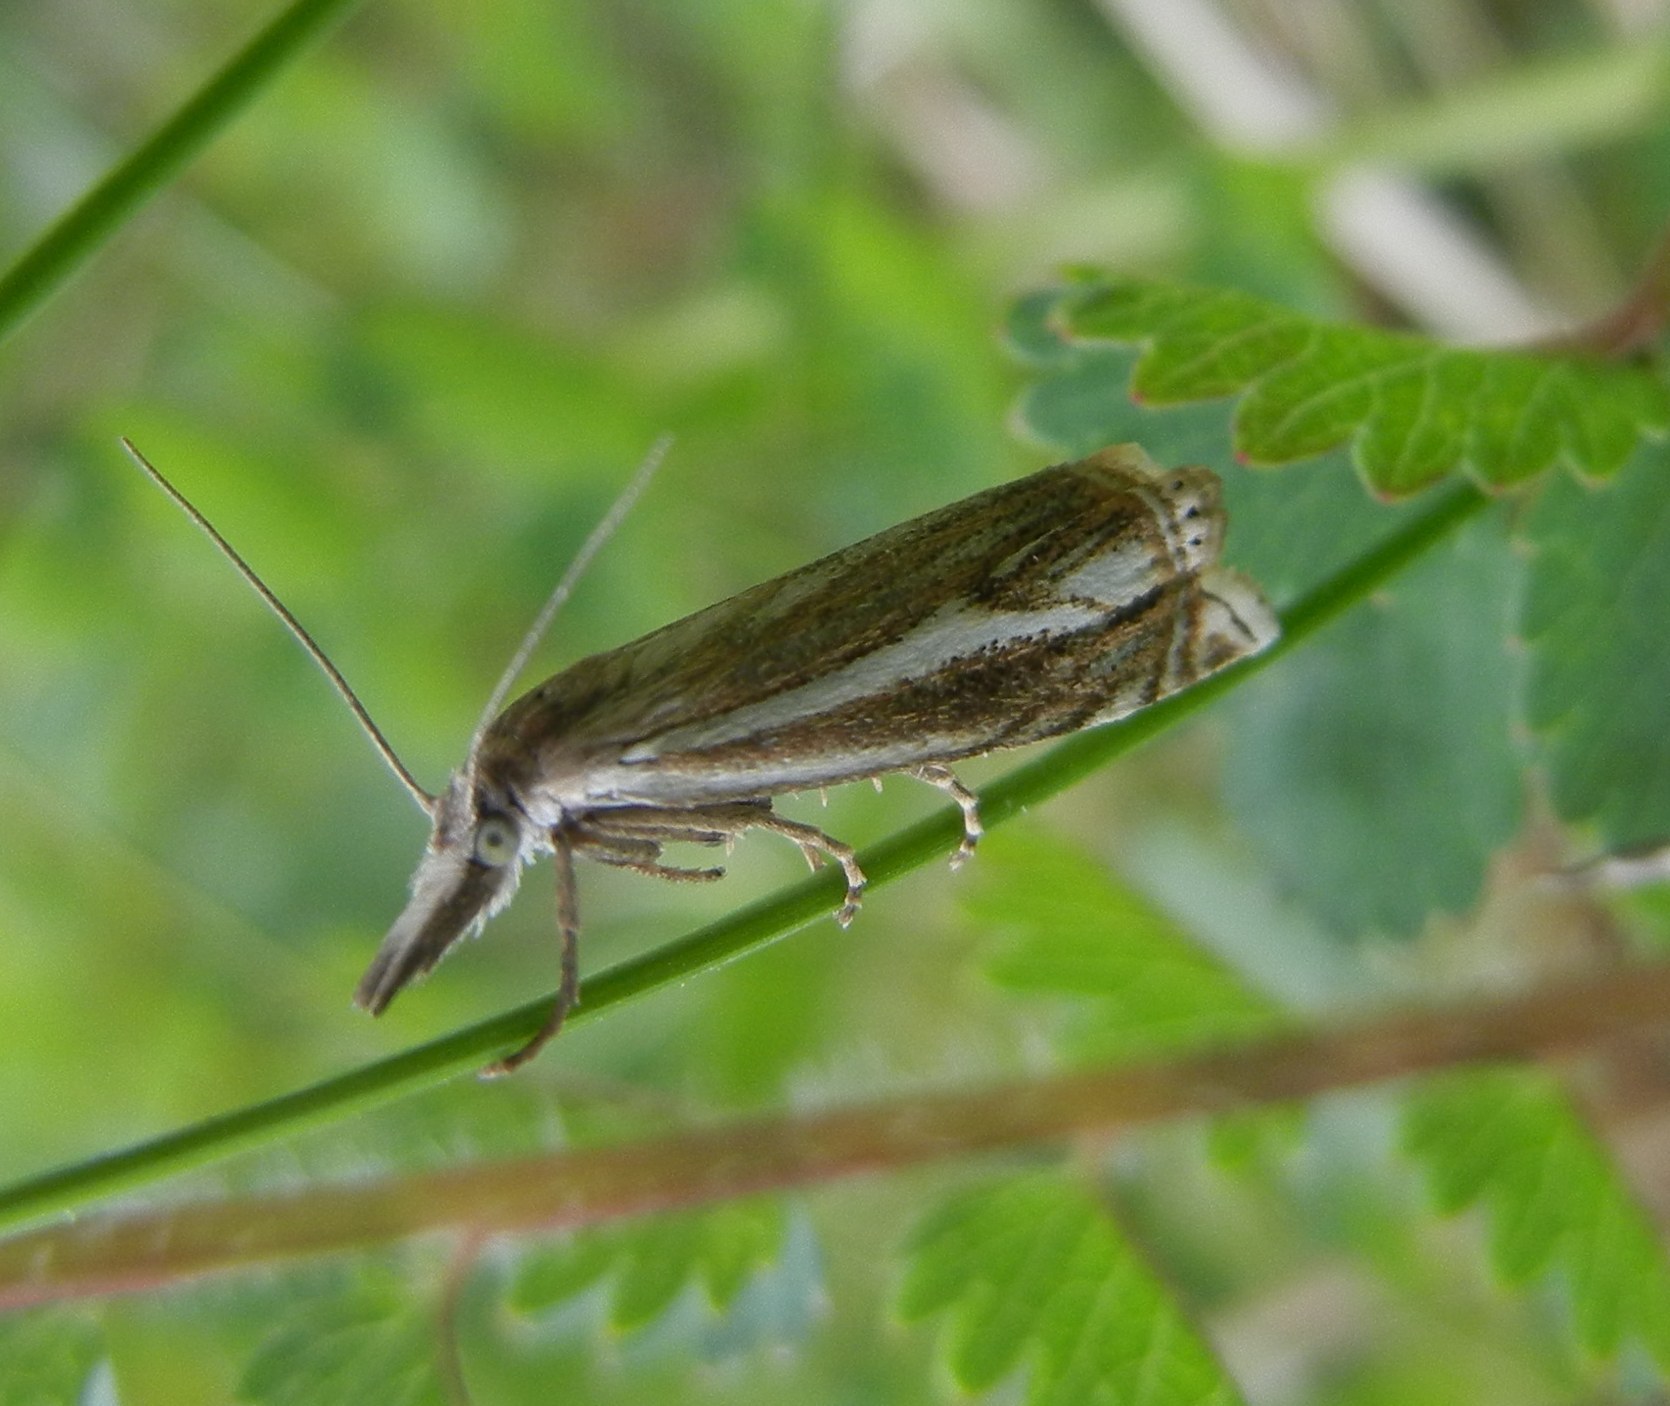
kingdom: Animalia
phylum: Arthropoda
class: Insecta
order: Lepidoptera
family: Crambidae
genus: Crambus
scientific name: Crambus nemorella
